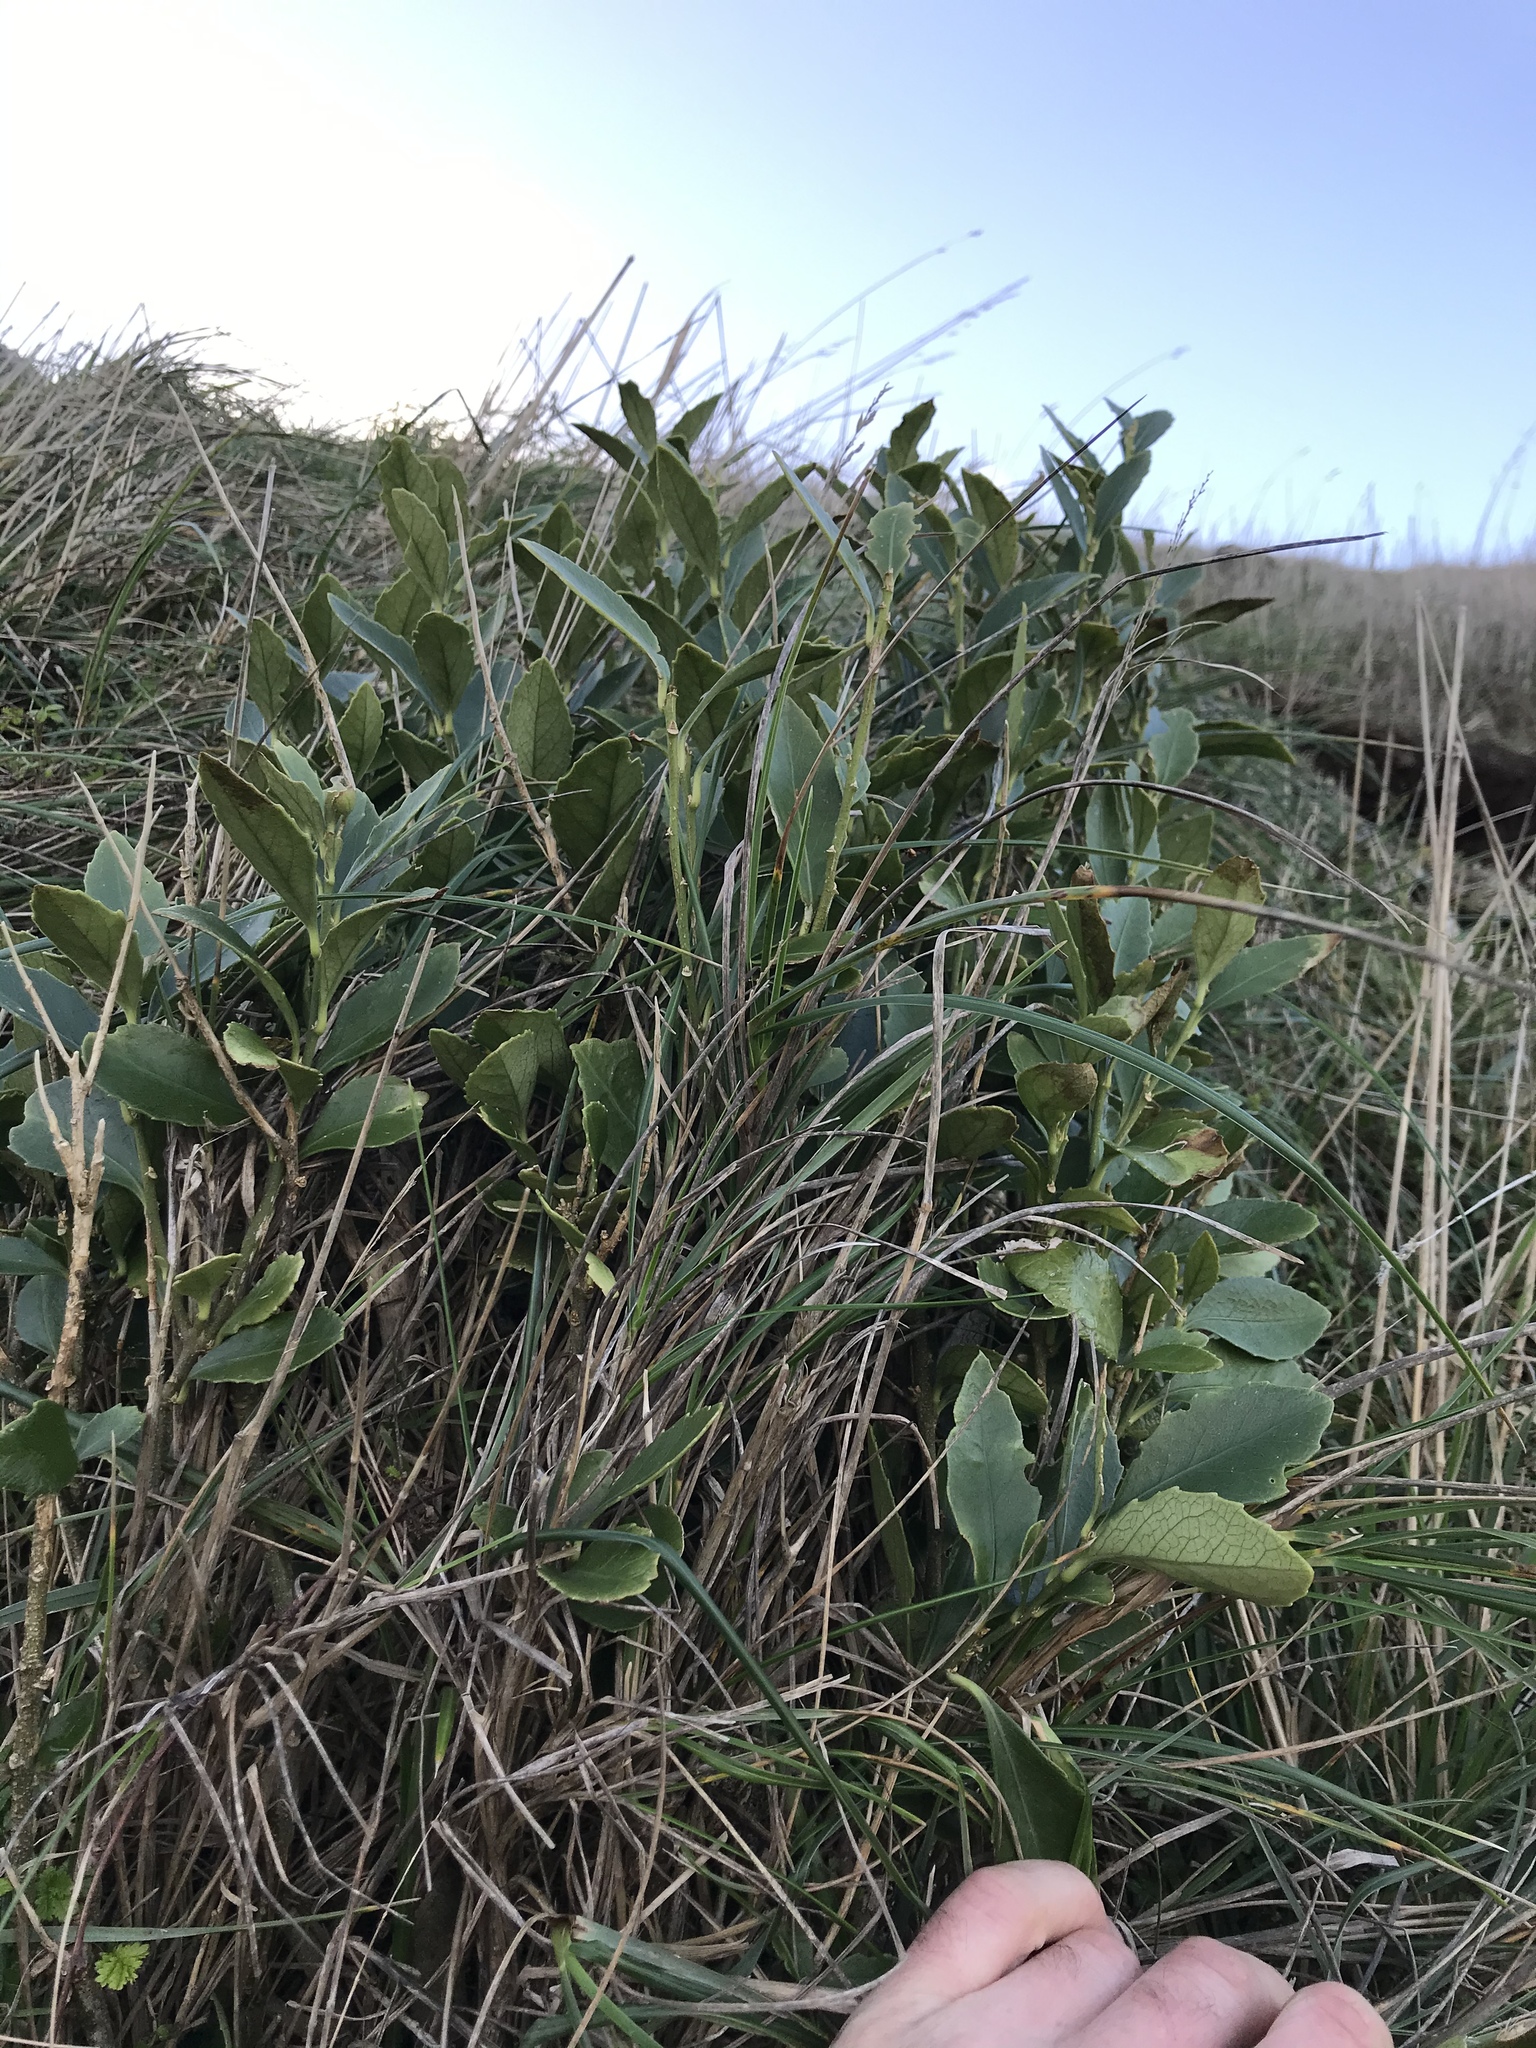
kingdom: Plantae
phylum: Tracheophyta
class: Magnoliopsida
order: Malpighiales
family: Violaceae
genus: Melicytus
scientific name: Melicytus chathamicus
